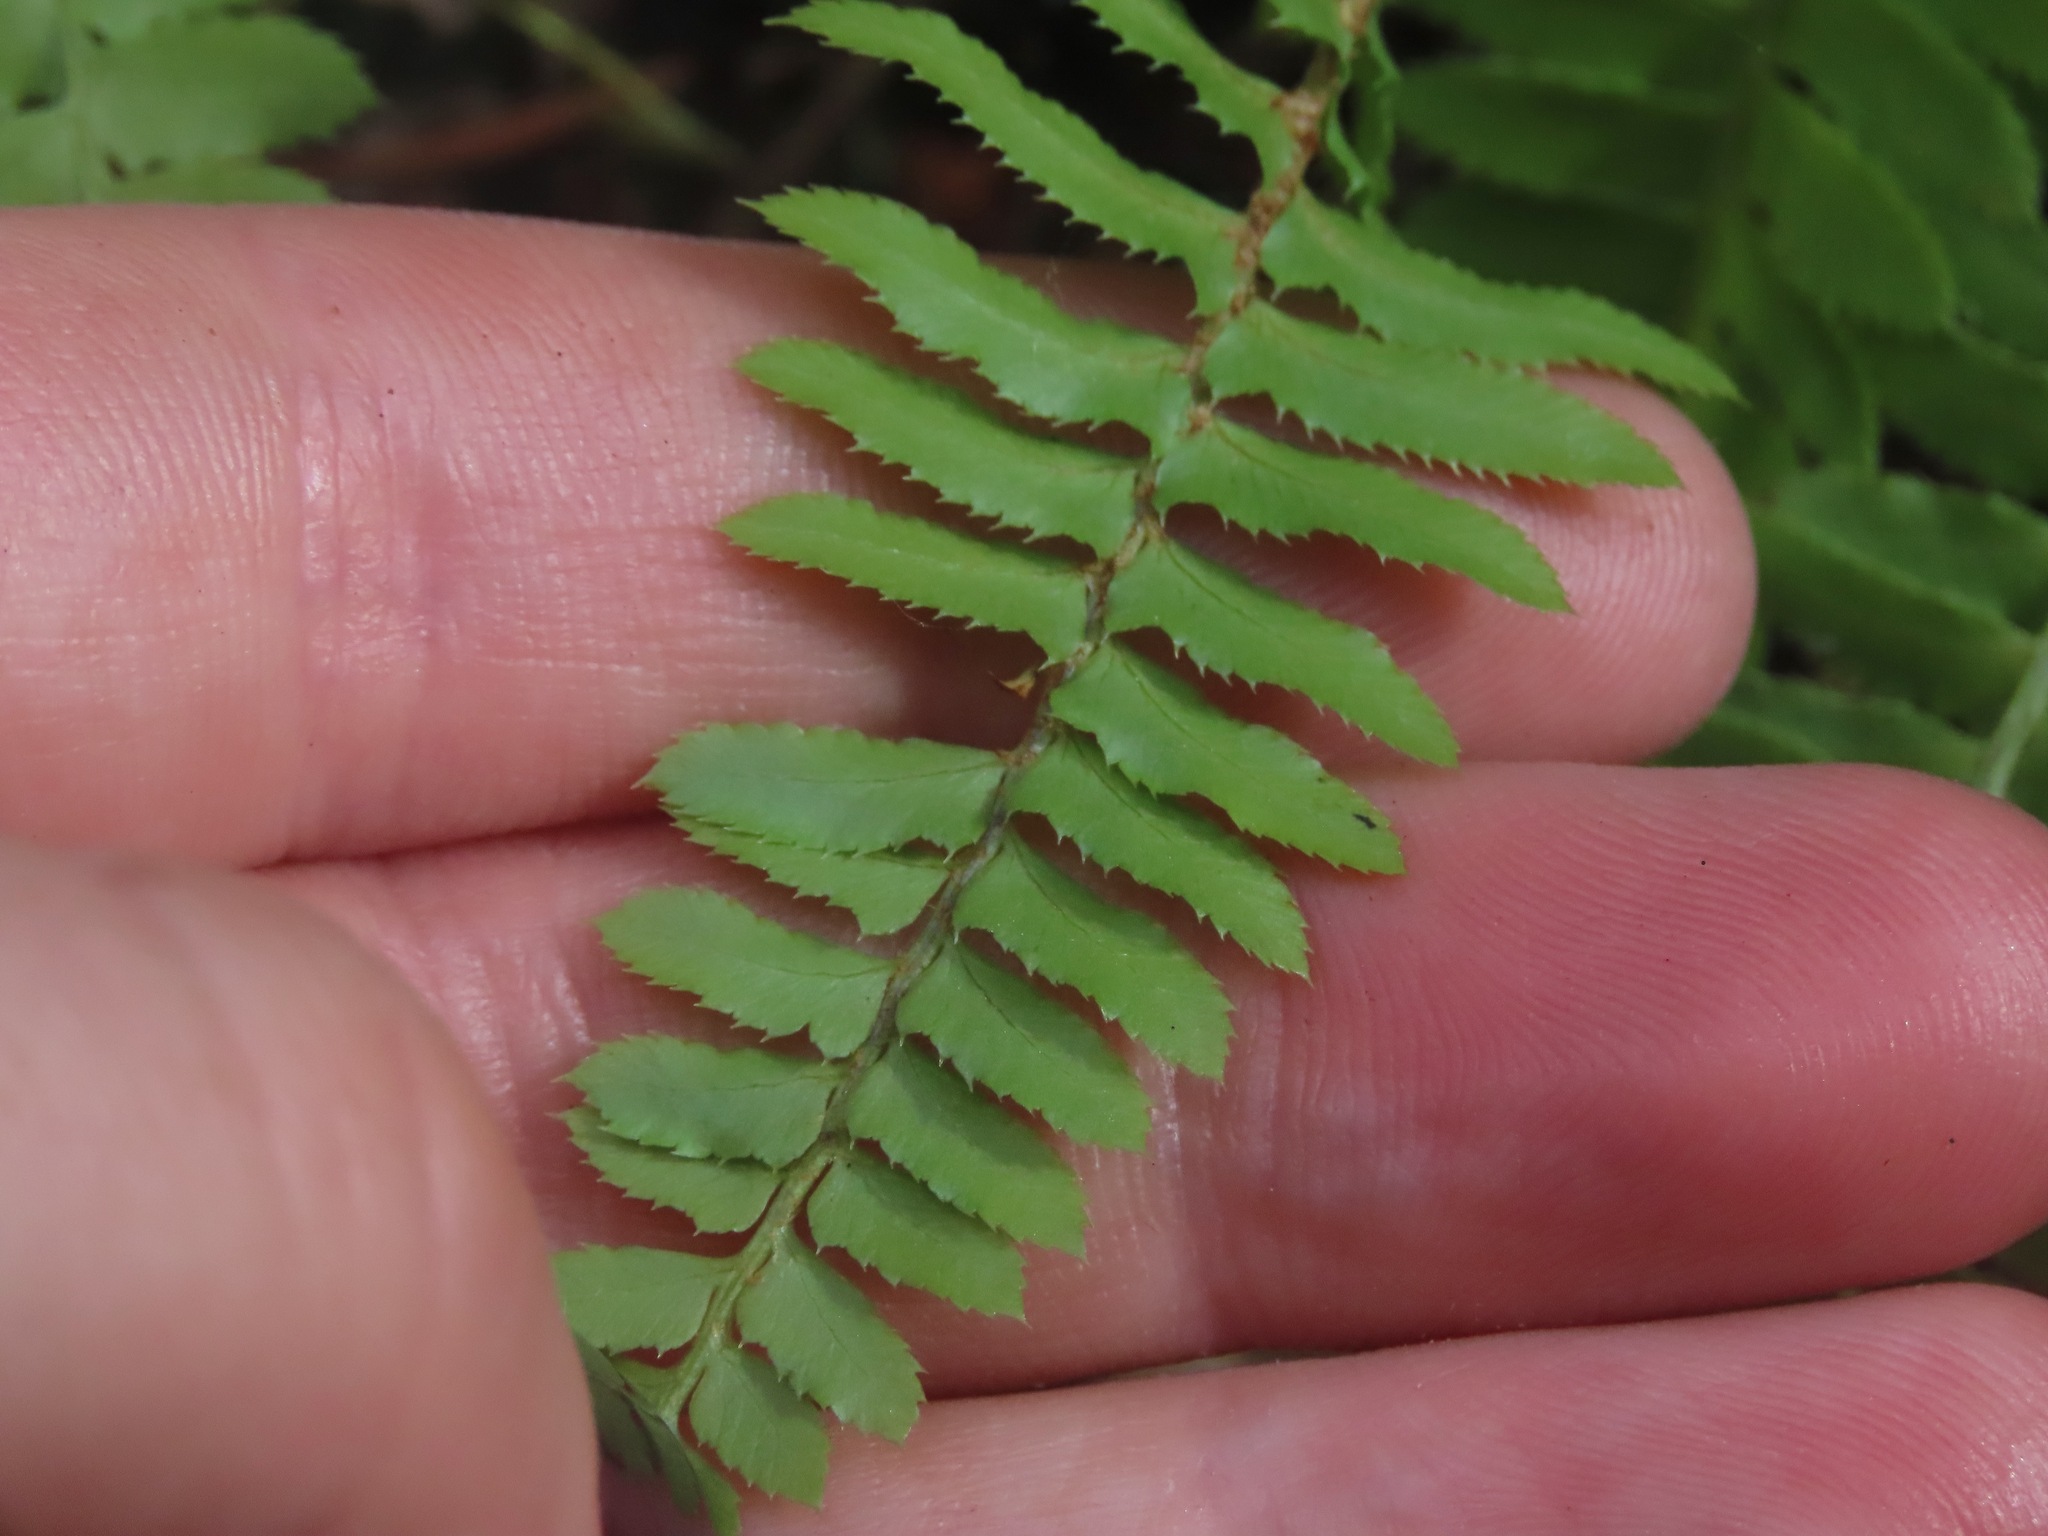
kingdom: Plantae
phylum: Tracheophyta
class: Polypodiopsida
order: Polypodiales
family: Dryopteridaceae
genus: Polystichum
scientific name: Polystichum imbricans
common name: Dwarf western sword fern
